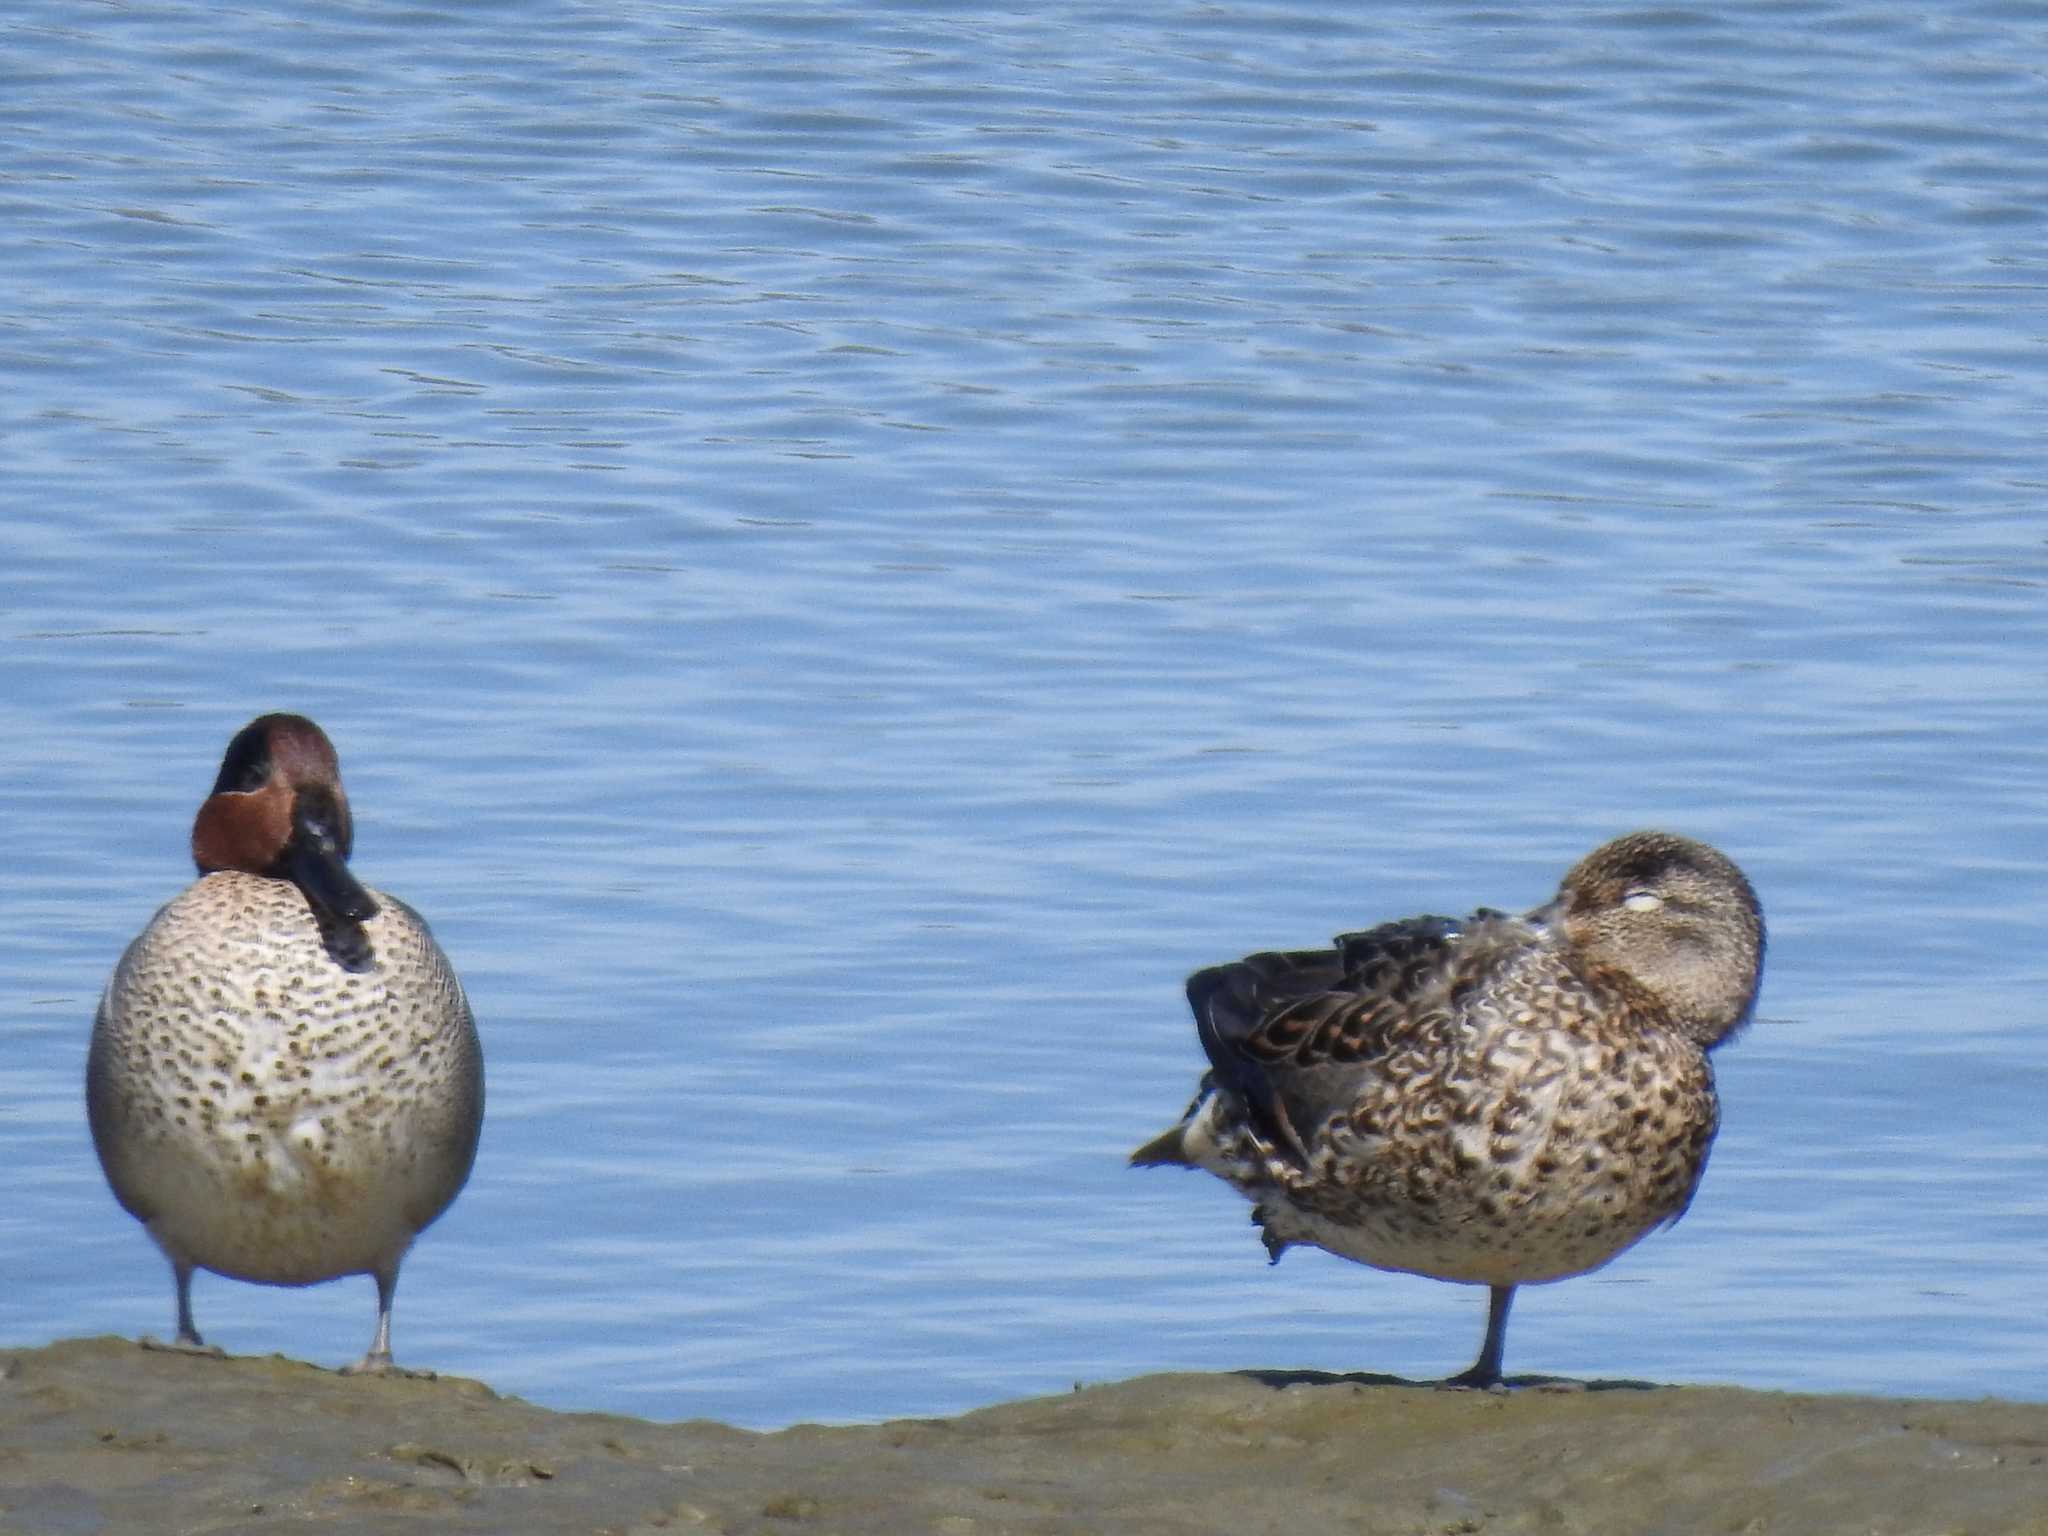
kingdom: Animalia
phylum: Chordata
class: Aves
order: Anseriformes
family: Anatidae
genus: Anas
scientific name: Anas crecca
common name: Eurasian teal
